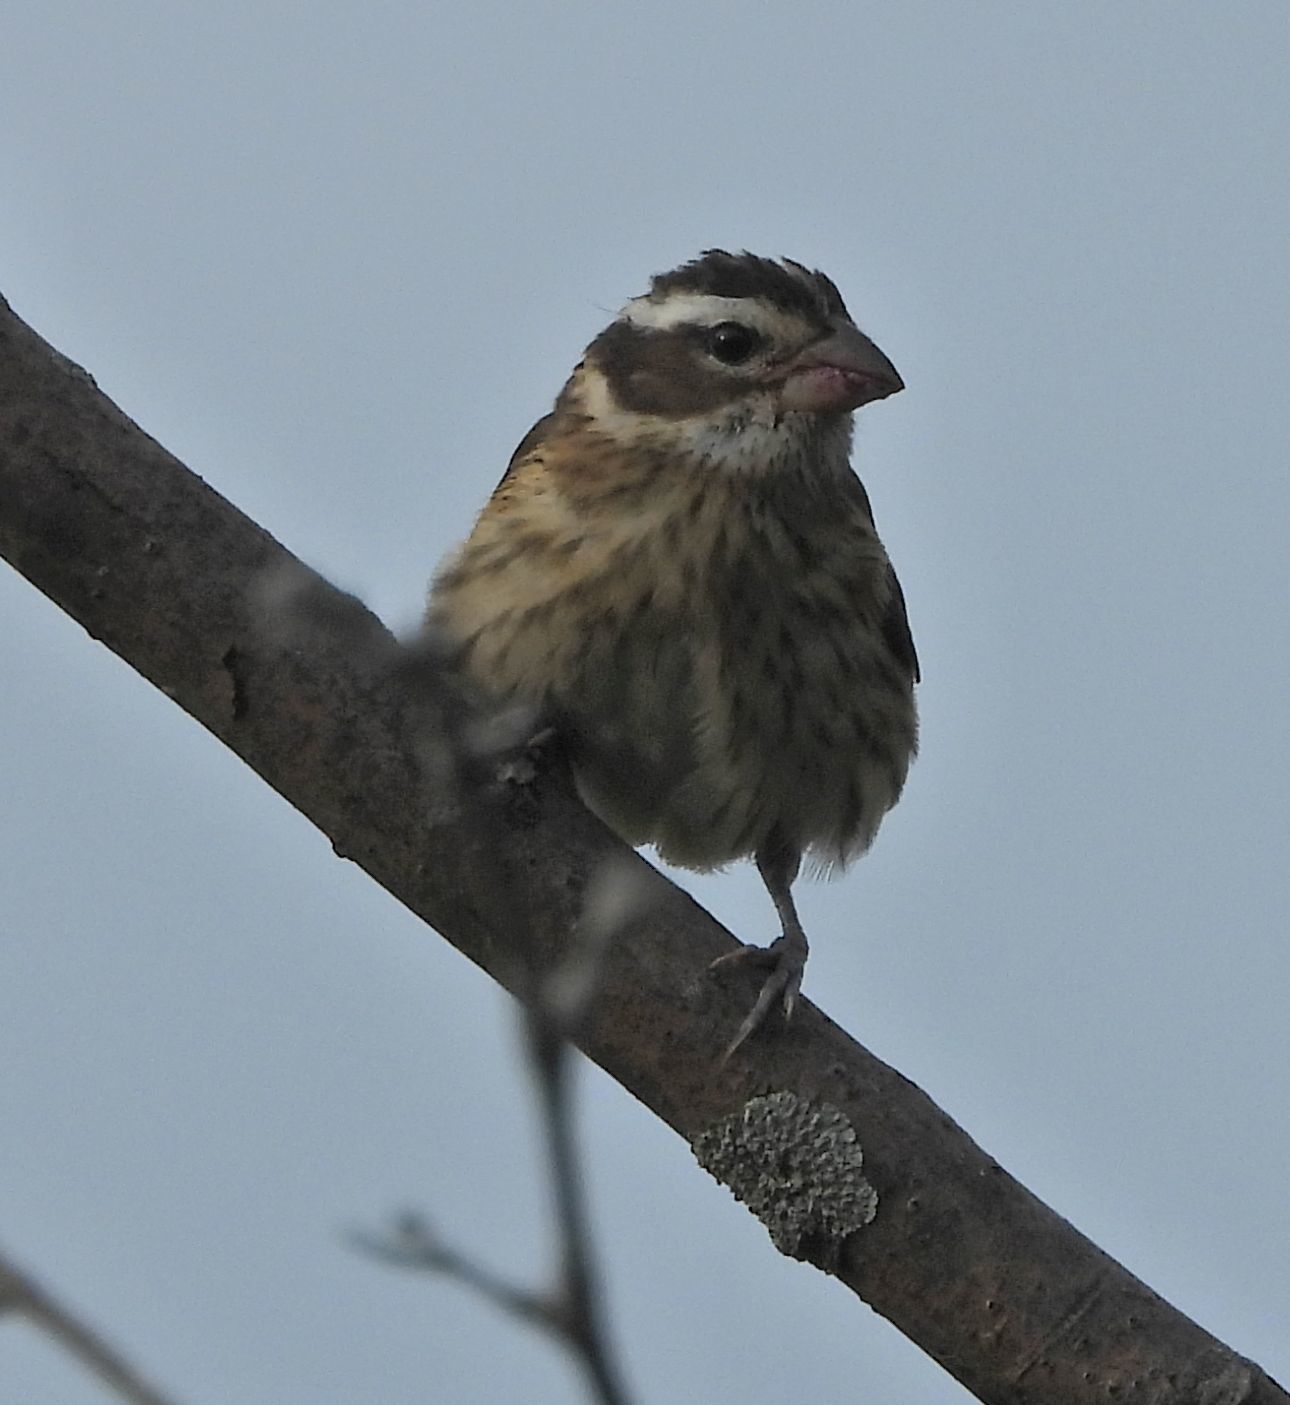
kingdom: Animalia
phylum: Chordata
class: Aves
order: Passeriformes
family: Cardinalidae
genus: Pheucticus
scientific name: Pheucticus ludovicianus
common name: Rose-breasted grosbeak
